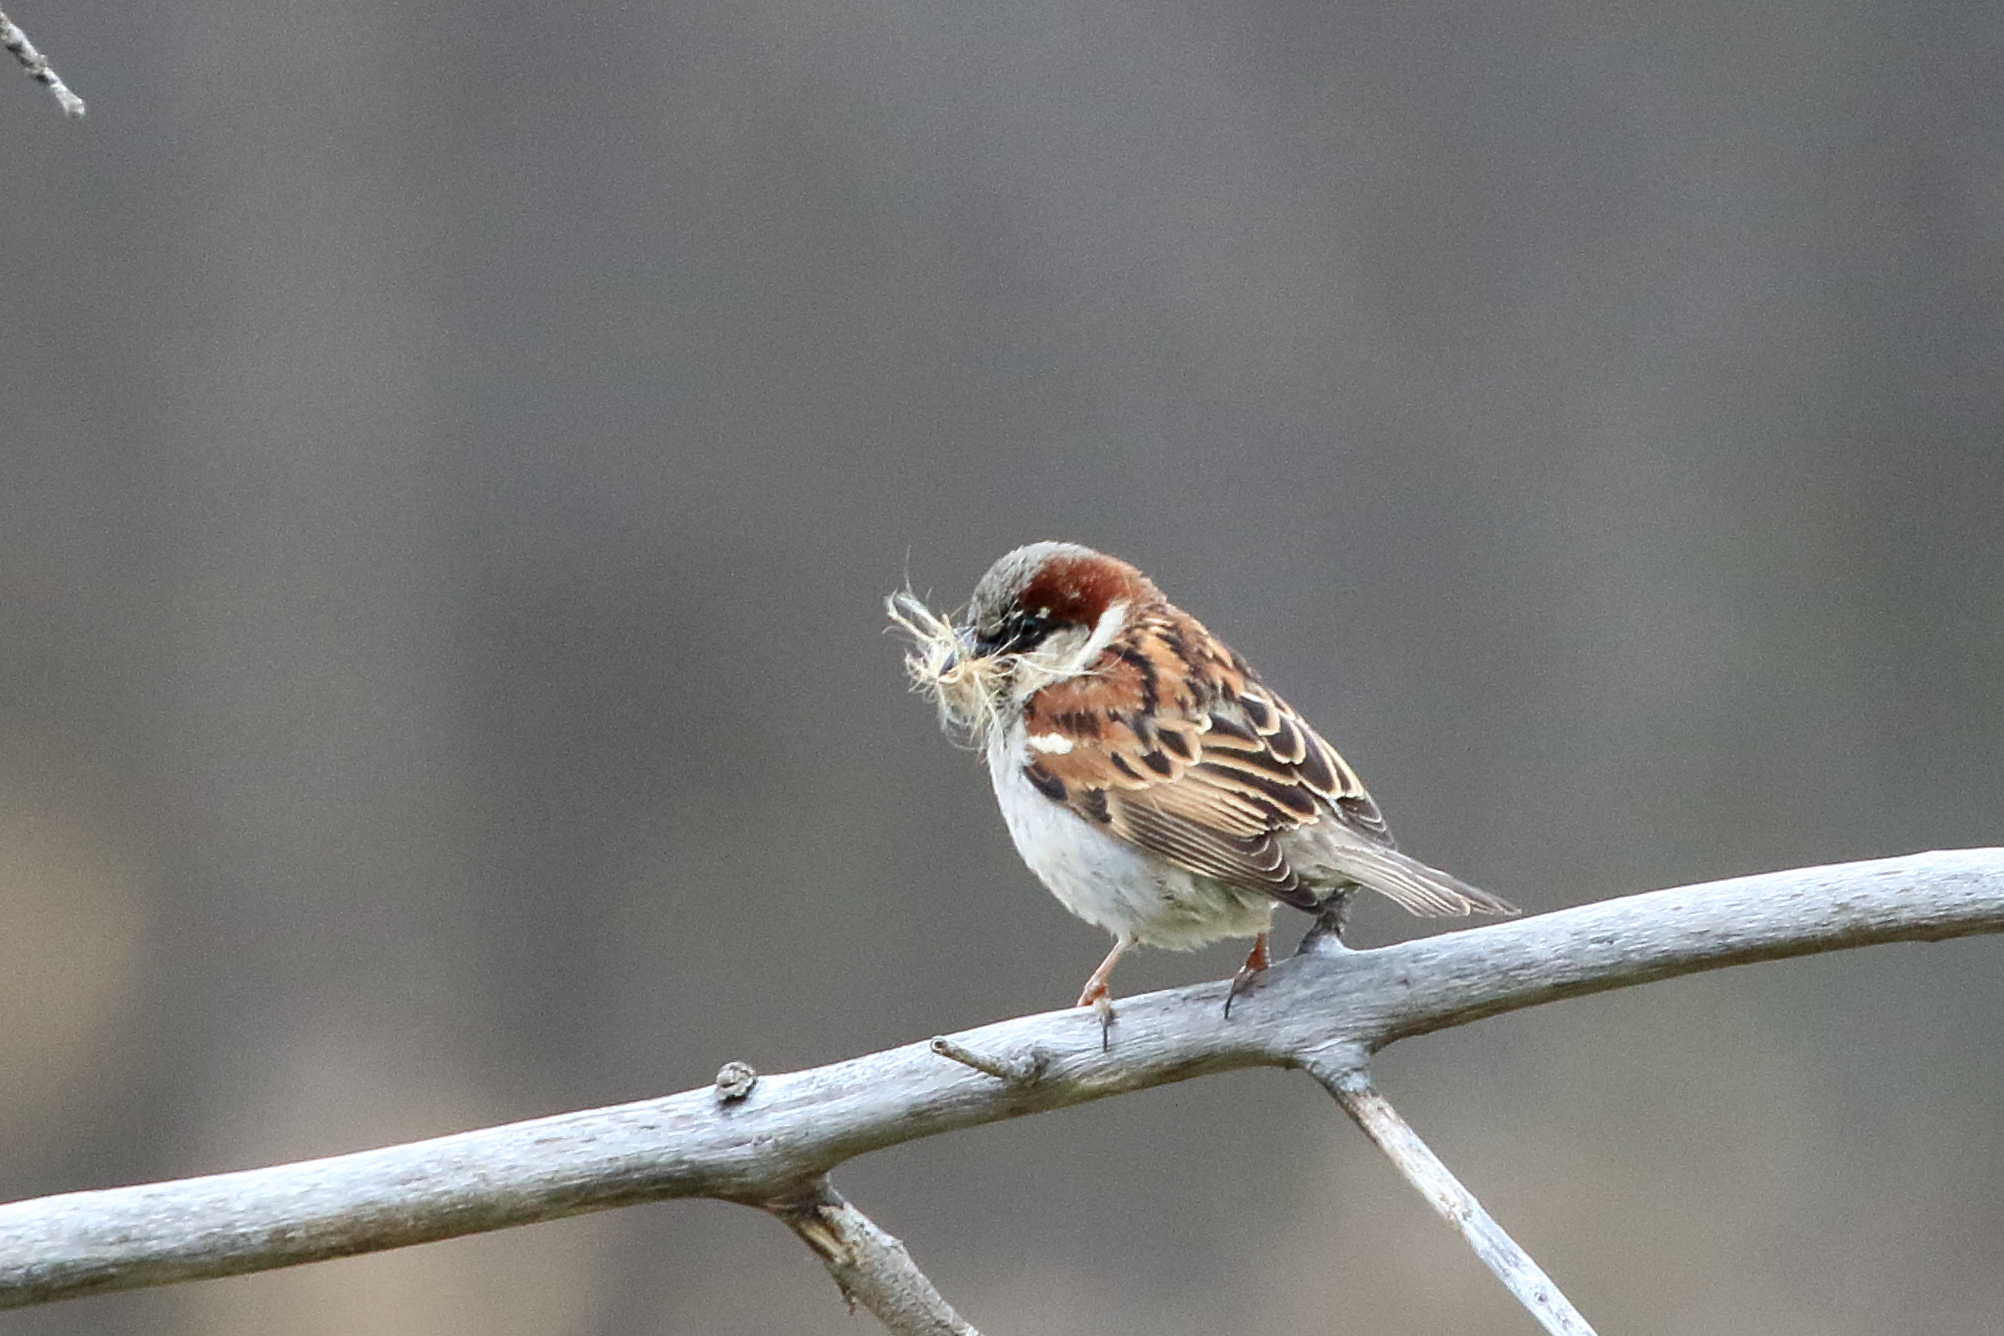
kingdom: Animalia
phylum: Chordata
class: Aves
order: Passeriformes
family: Passeridae
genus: Passer
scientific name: Passer domesticus
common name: House sparrow
